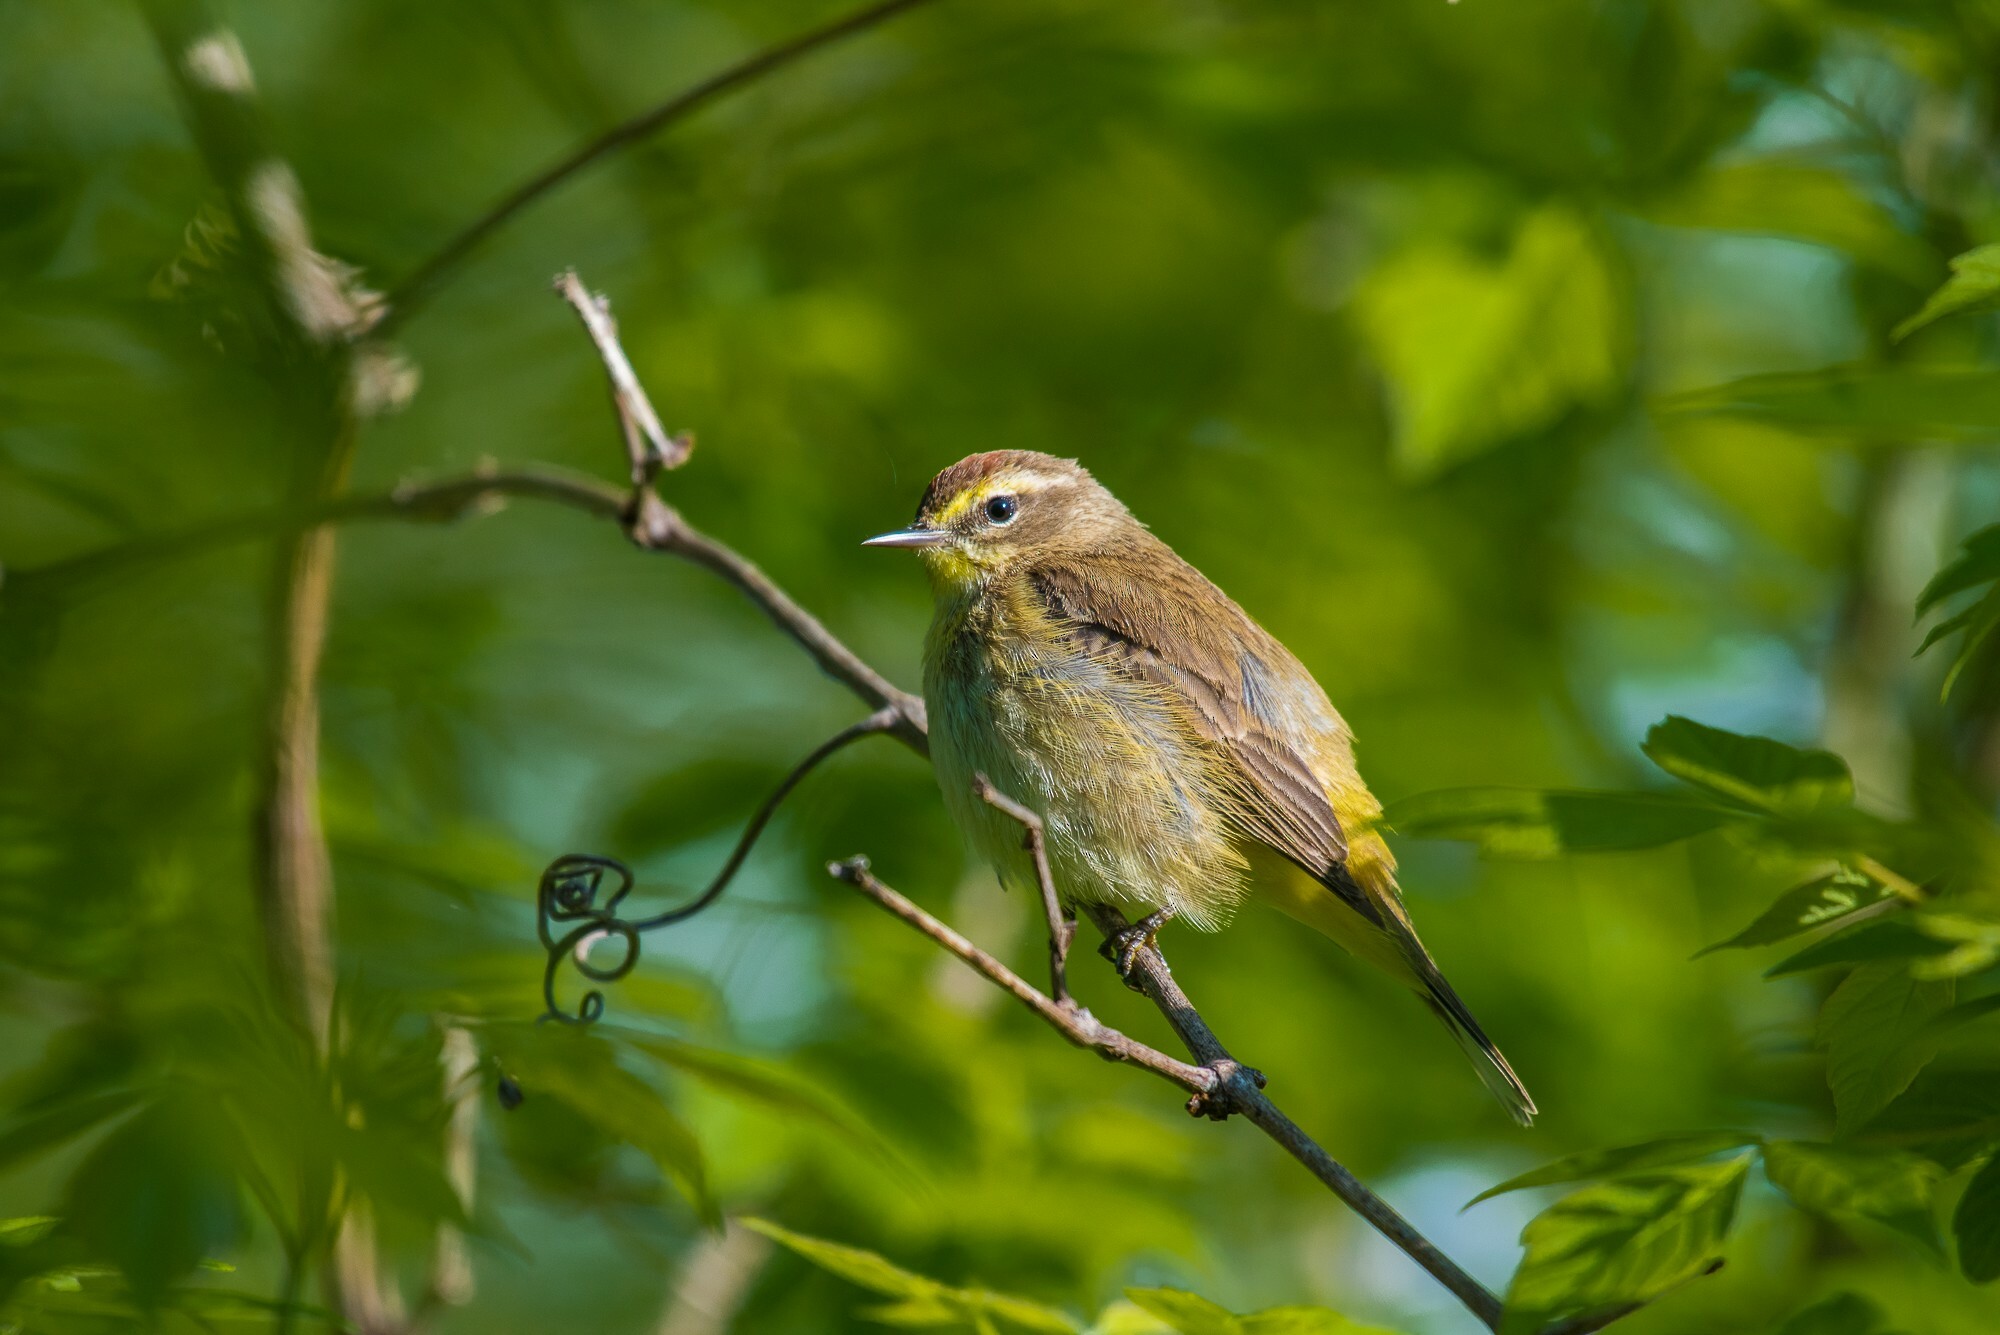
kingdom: Animalia
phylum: Chordata
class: Aves
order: Passeriformes
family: Parulidae
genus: Setophaga
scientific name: Setophaga palmarum
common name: Palm warbler
